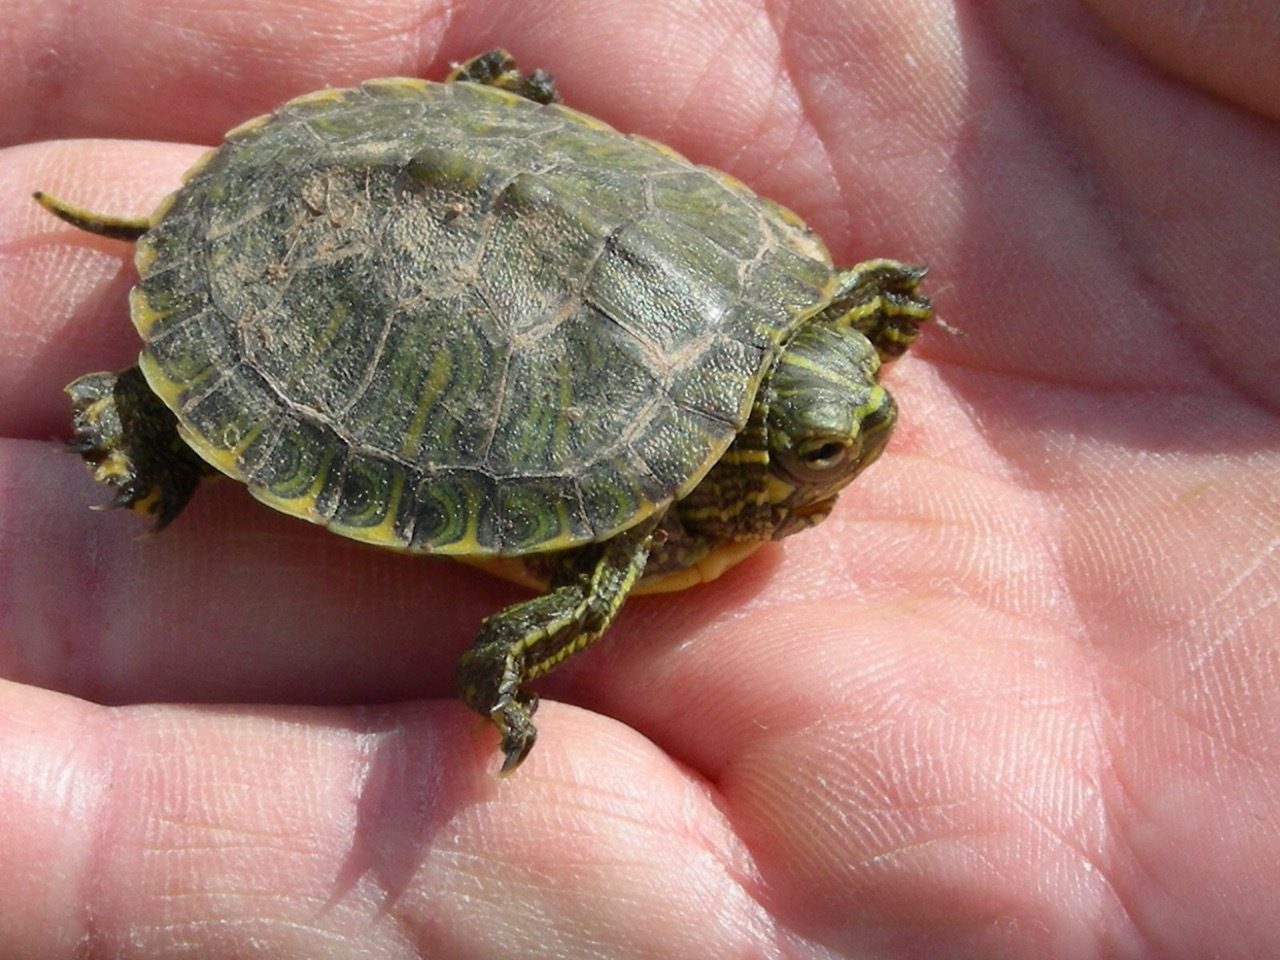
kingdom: Animalia
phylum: Chordata
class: Testudines
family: Emydidae
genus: Trachemys
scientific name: Trachemys scripta
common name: Slider
